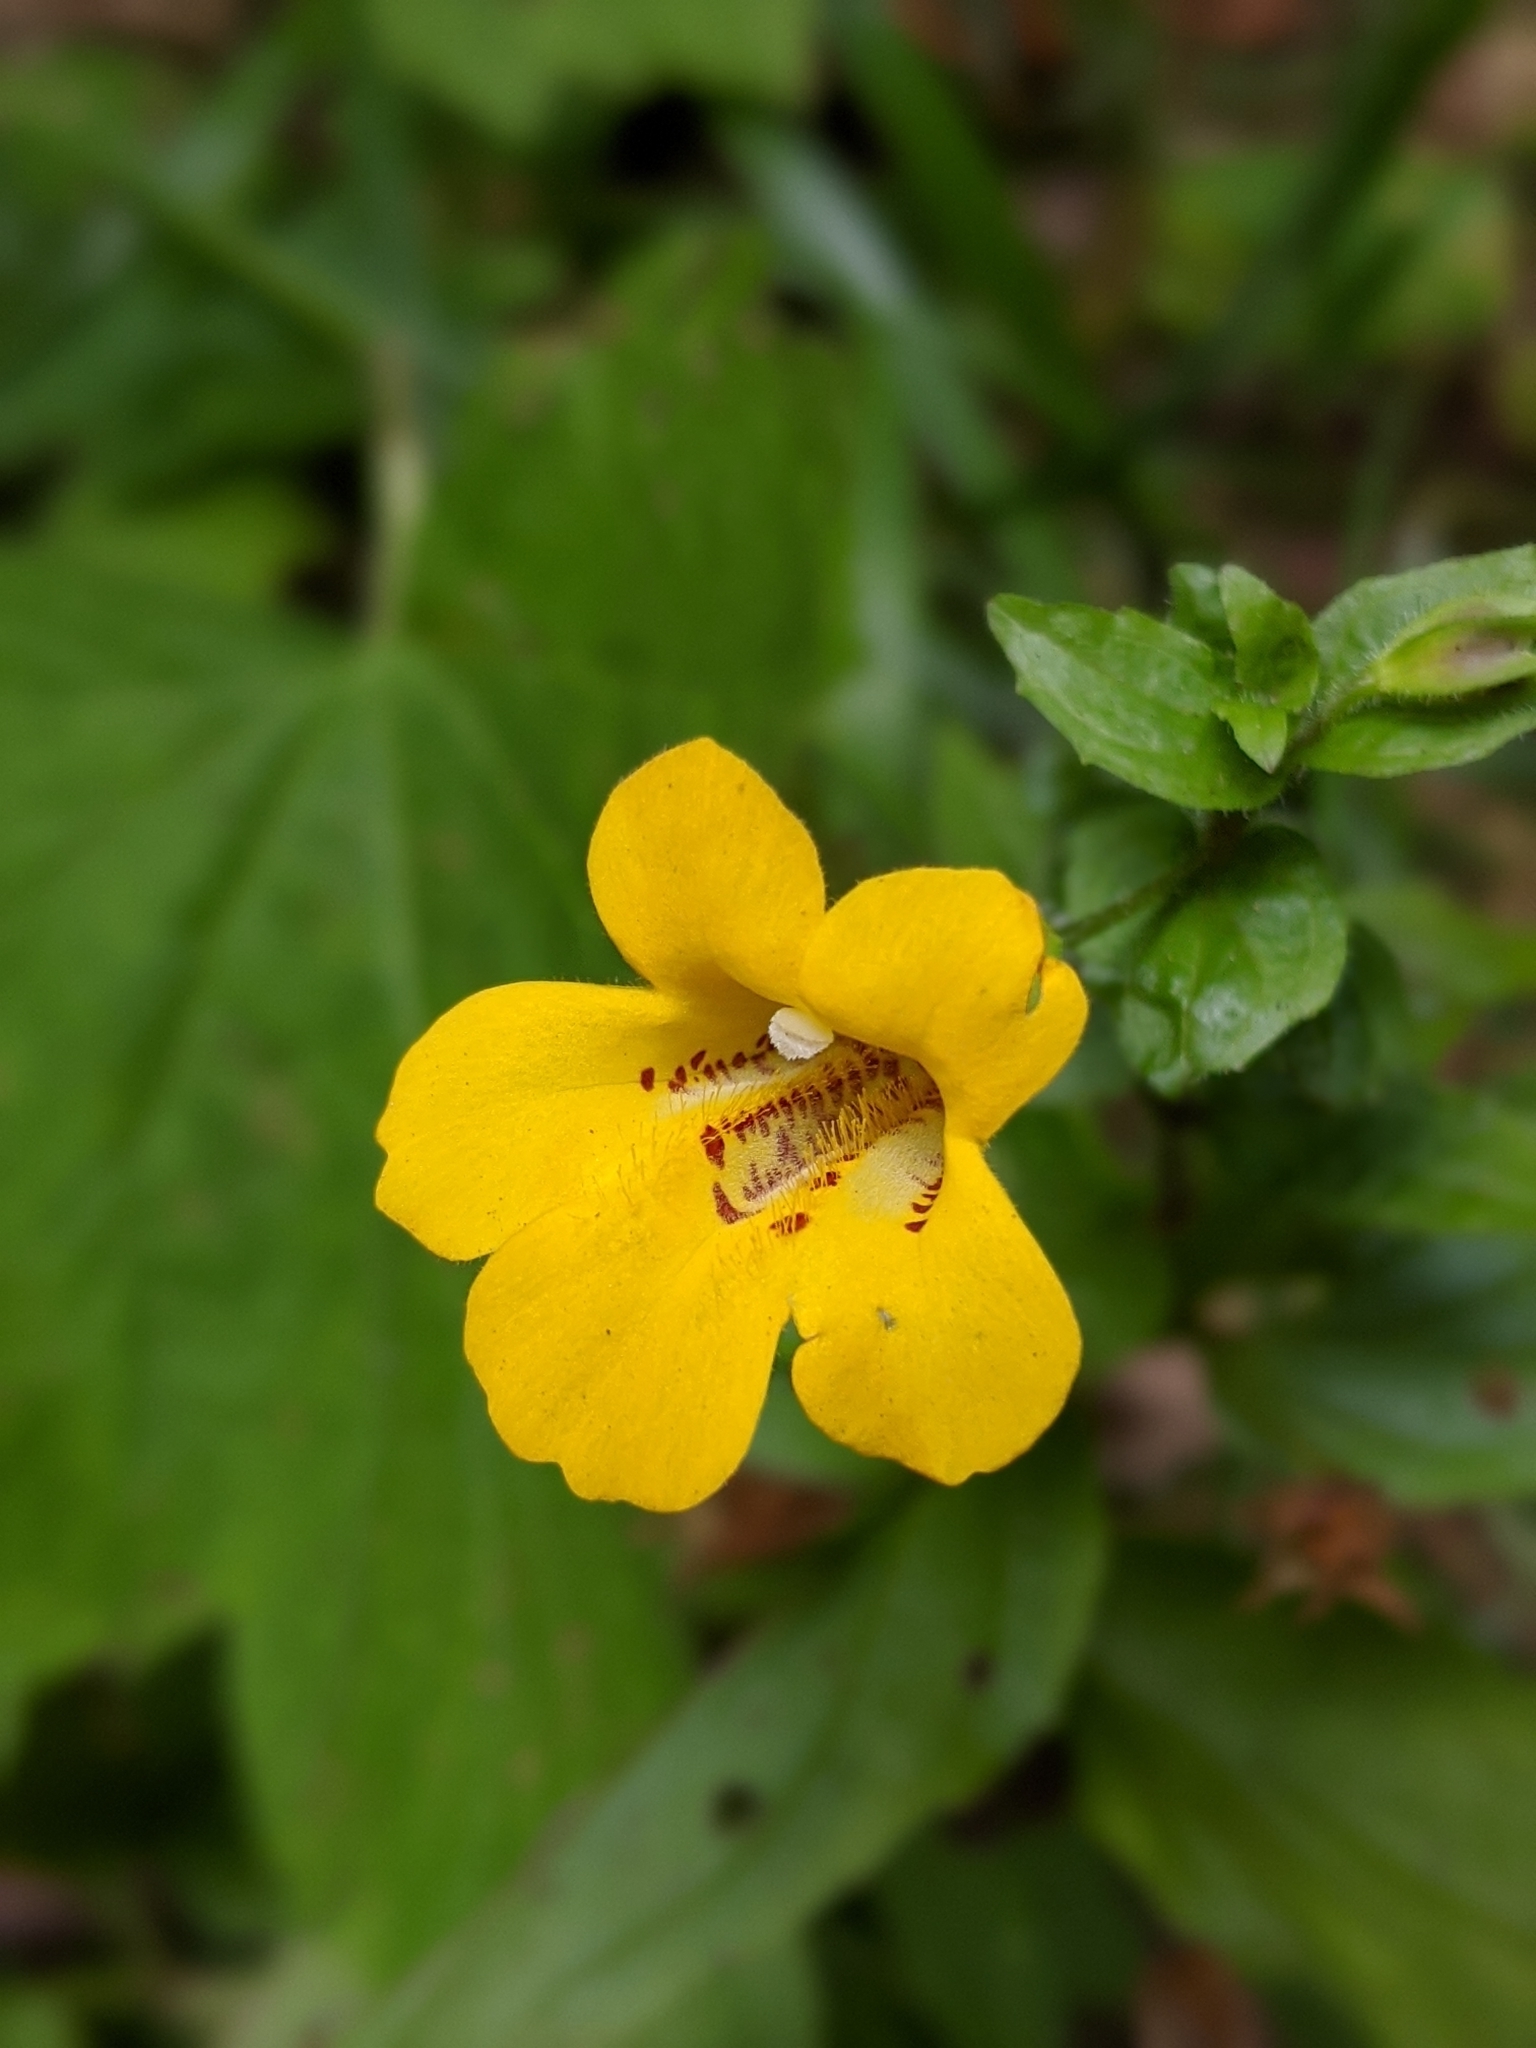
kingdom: Plantae
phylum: Tracheophyta
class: Magnoliopsida
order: Lamiales
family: Phrymaceae
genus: Erythranthe
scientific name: Erythranthe dentata
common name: Coastal monkeyflower
